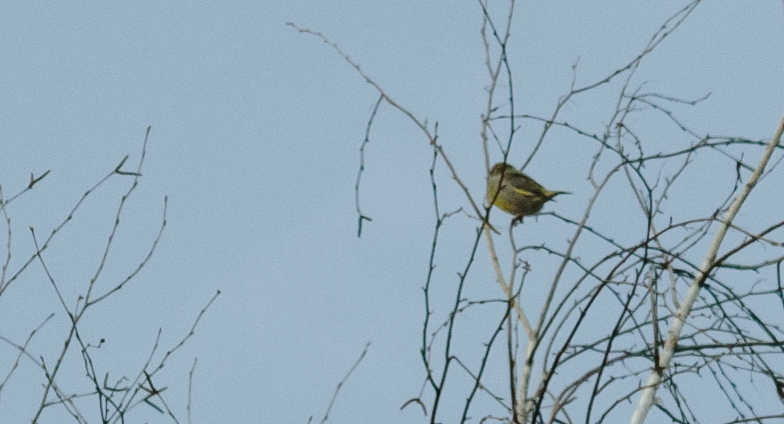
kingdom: Plantae
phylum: Tracheophyta
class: Liliopsida
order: Poales
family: Poaceae
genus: Chloris
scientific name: Chloris chloris
